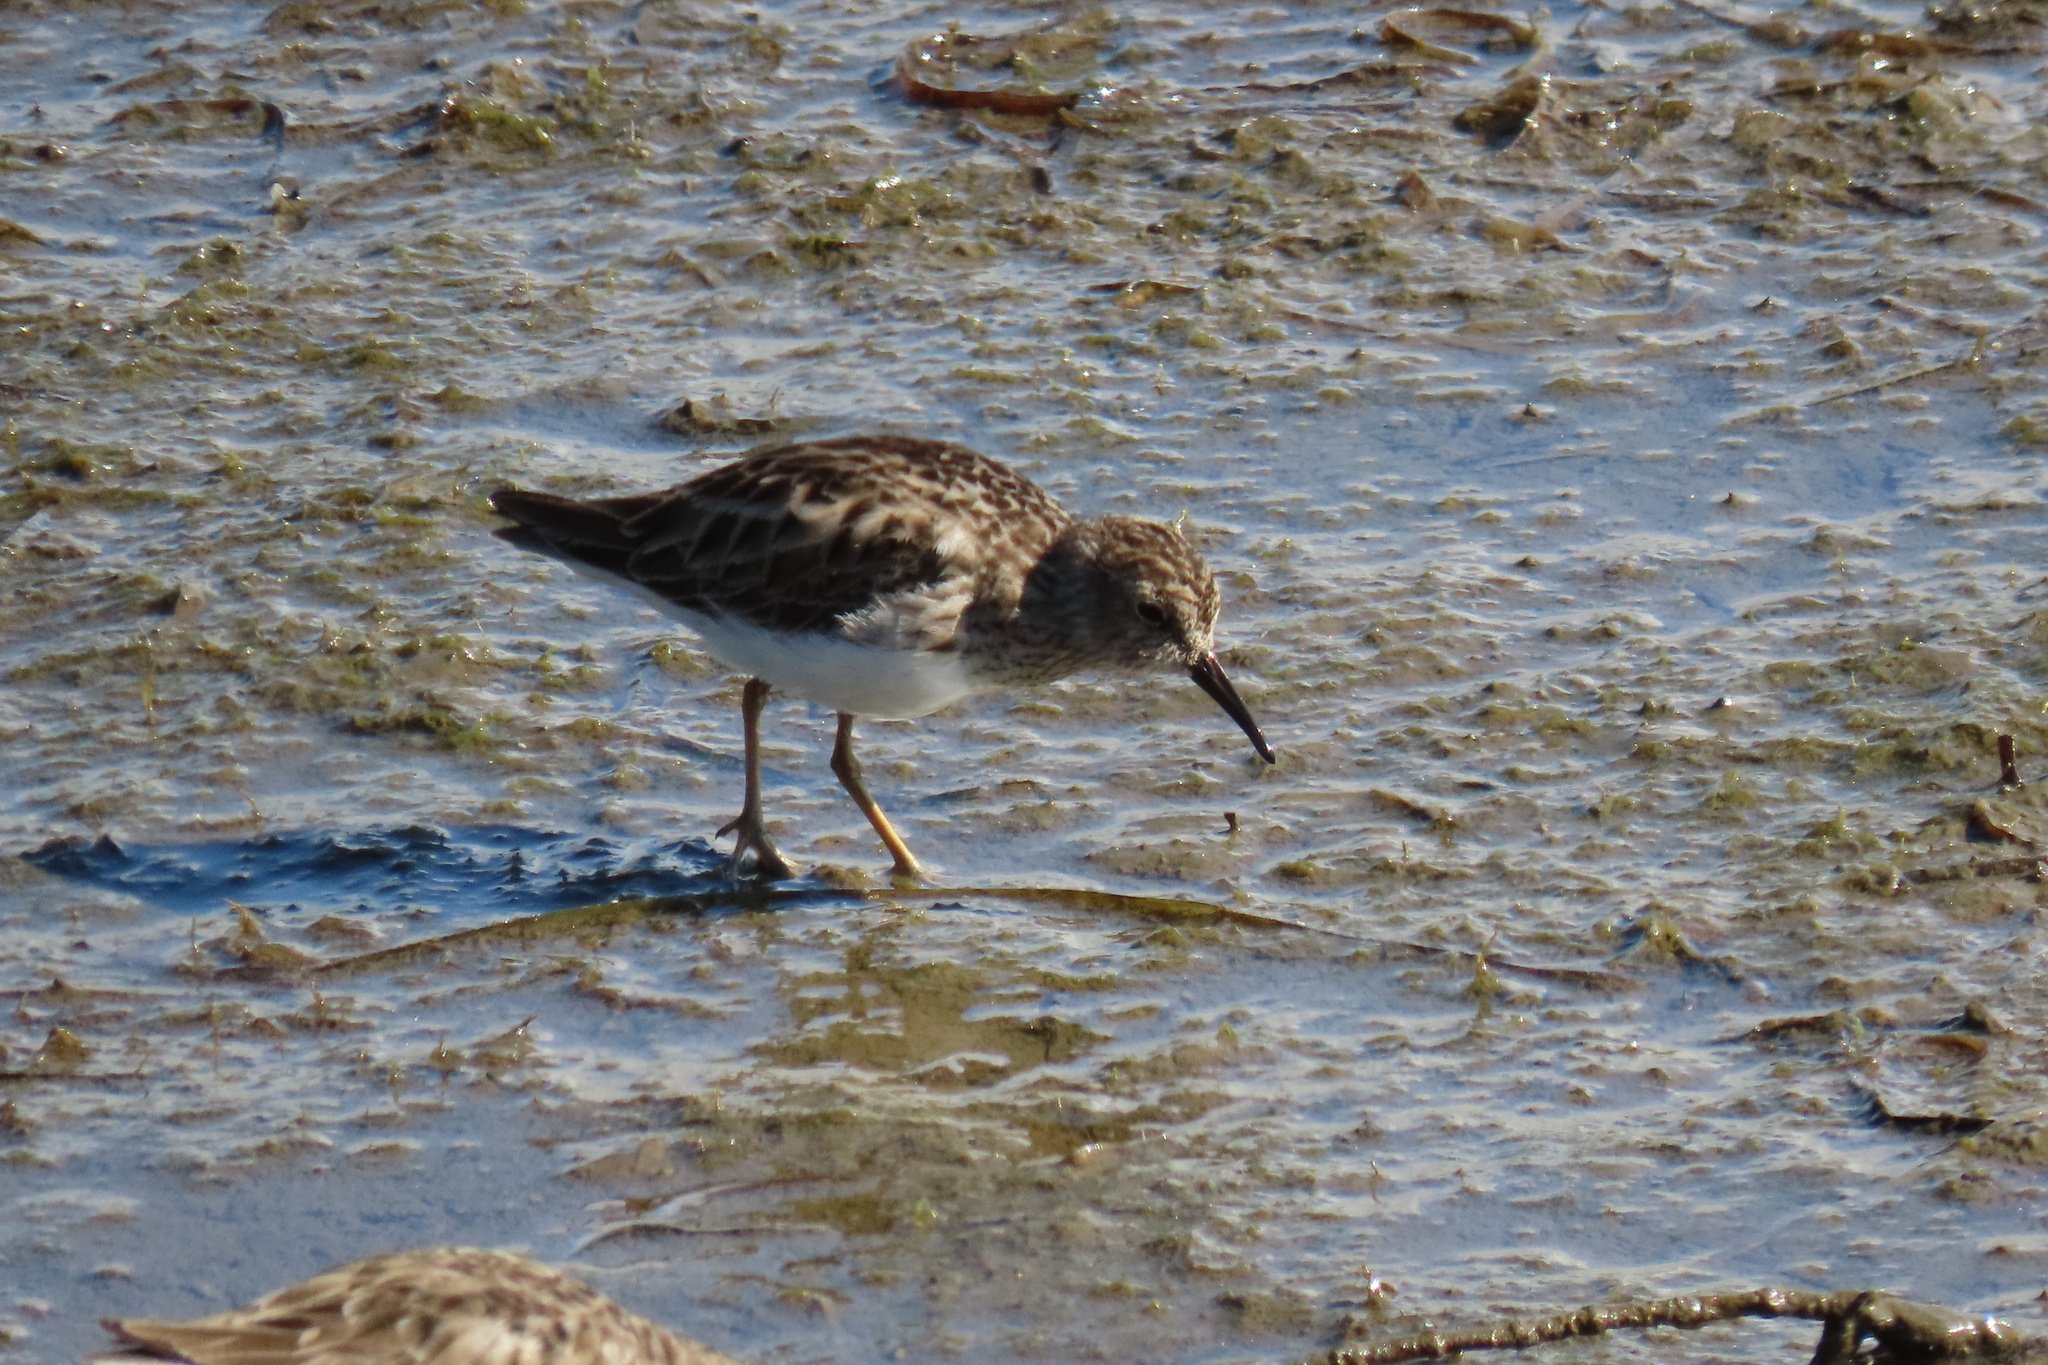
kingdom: Animalia
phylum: Chordata
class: Aves
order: Charadriiformes
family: Scolopacidae
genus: Calidris
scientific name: Calidris minutilla
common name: Least sandpiper
